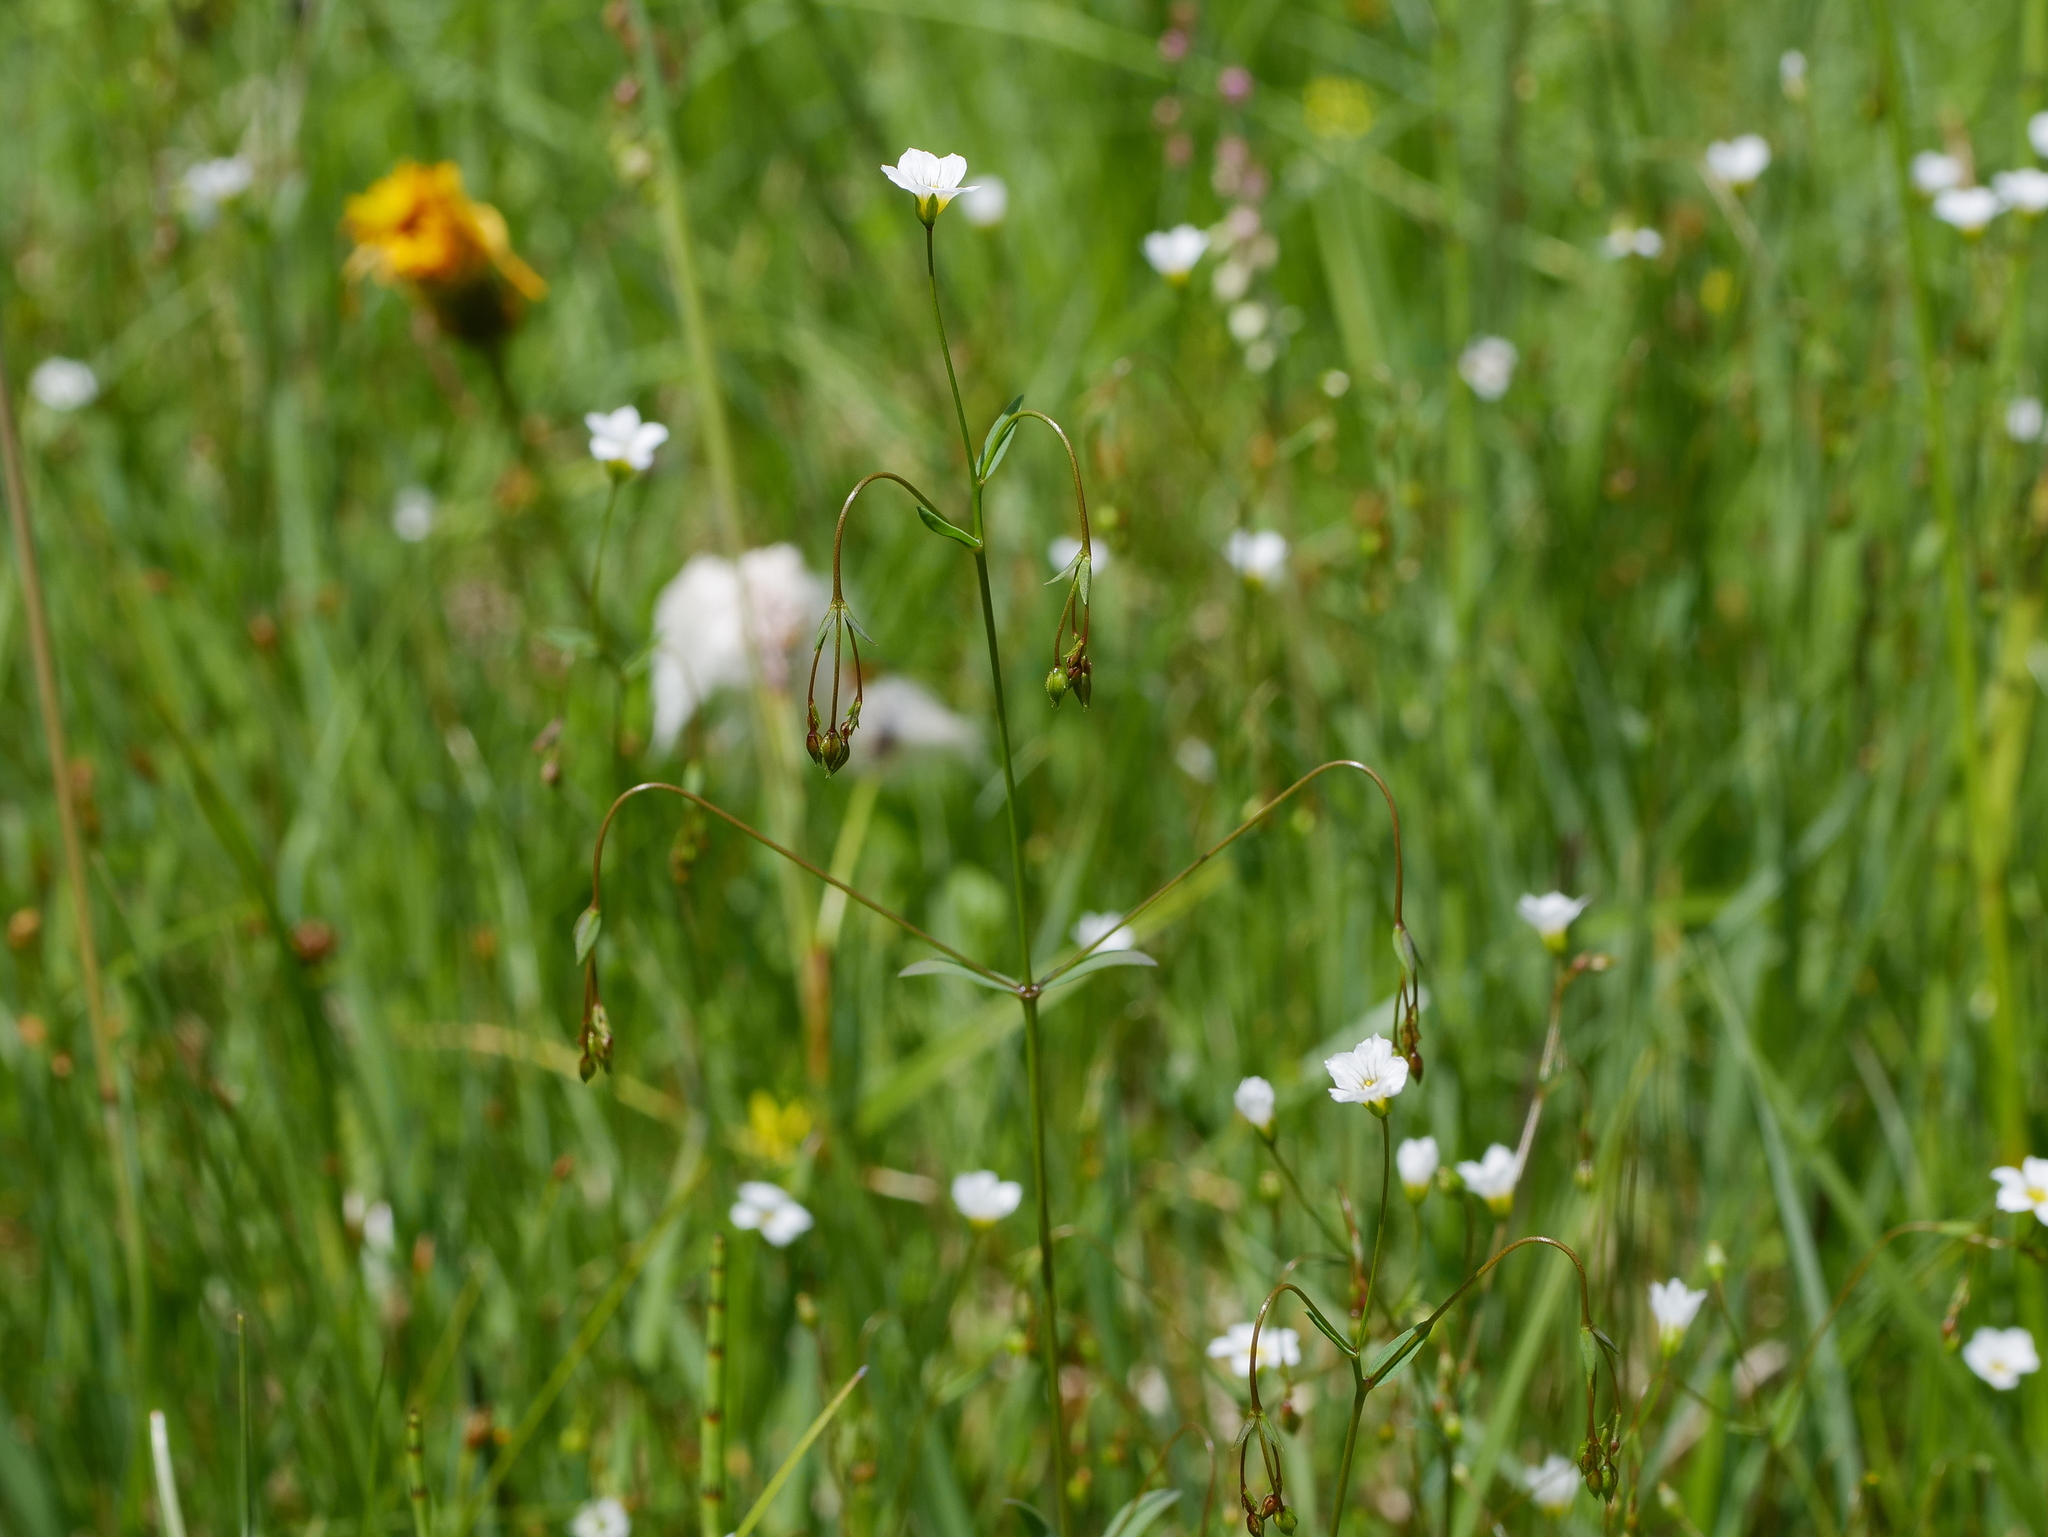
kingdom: Plantae
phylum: Tracheophyta
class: Magnoliopsida
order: Malpighiales
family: Linaceae
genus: Linum
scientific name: Linum catharticum
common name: Fairy flax
